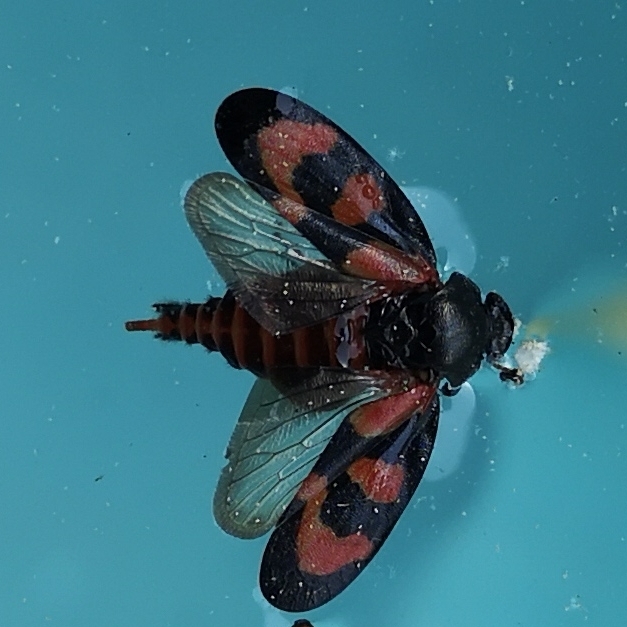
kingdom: Animalia
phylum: Arthropoda
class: Insecta
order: Hemiptera
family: Cercopidae
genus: Cercopis
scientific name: Cercopis vulnerata
